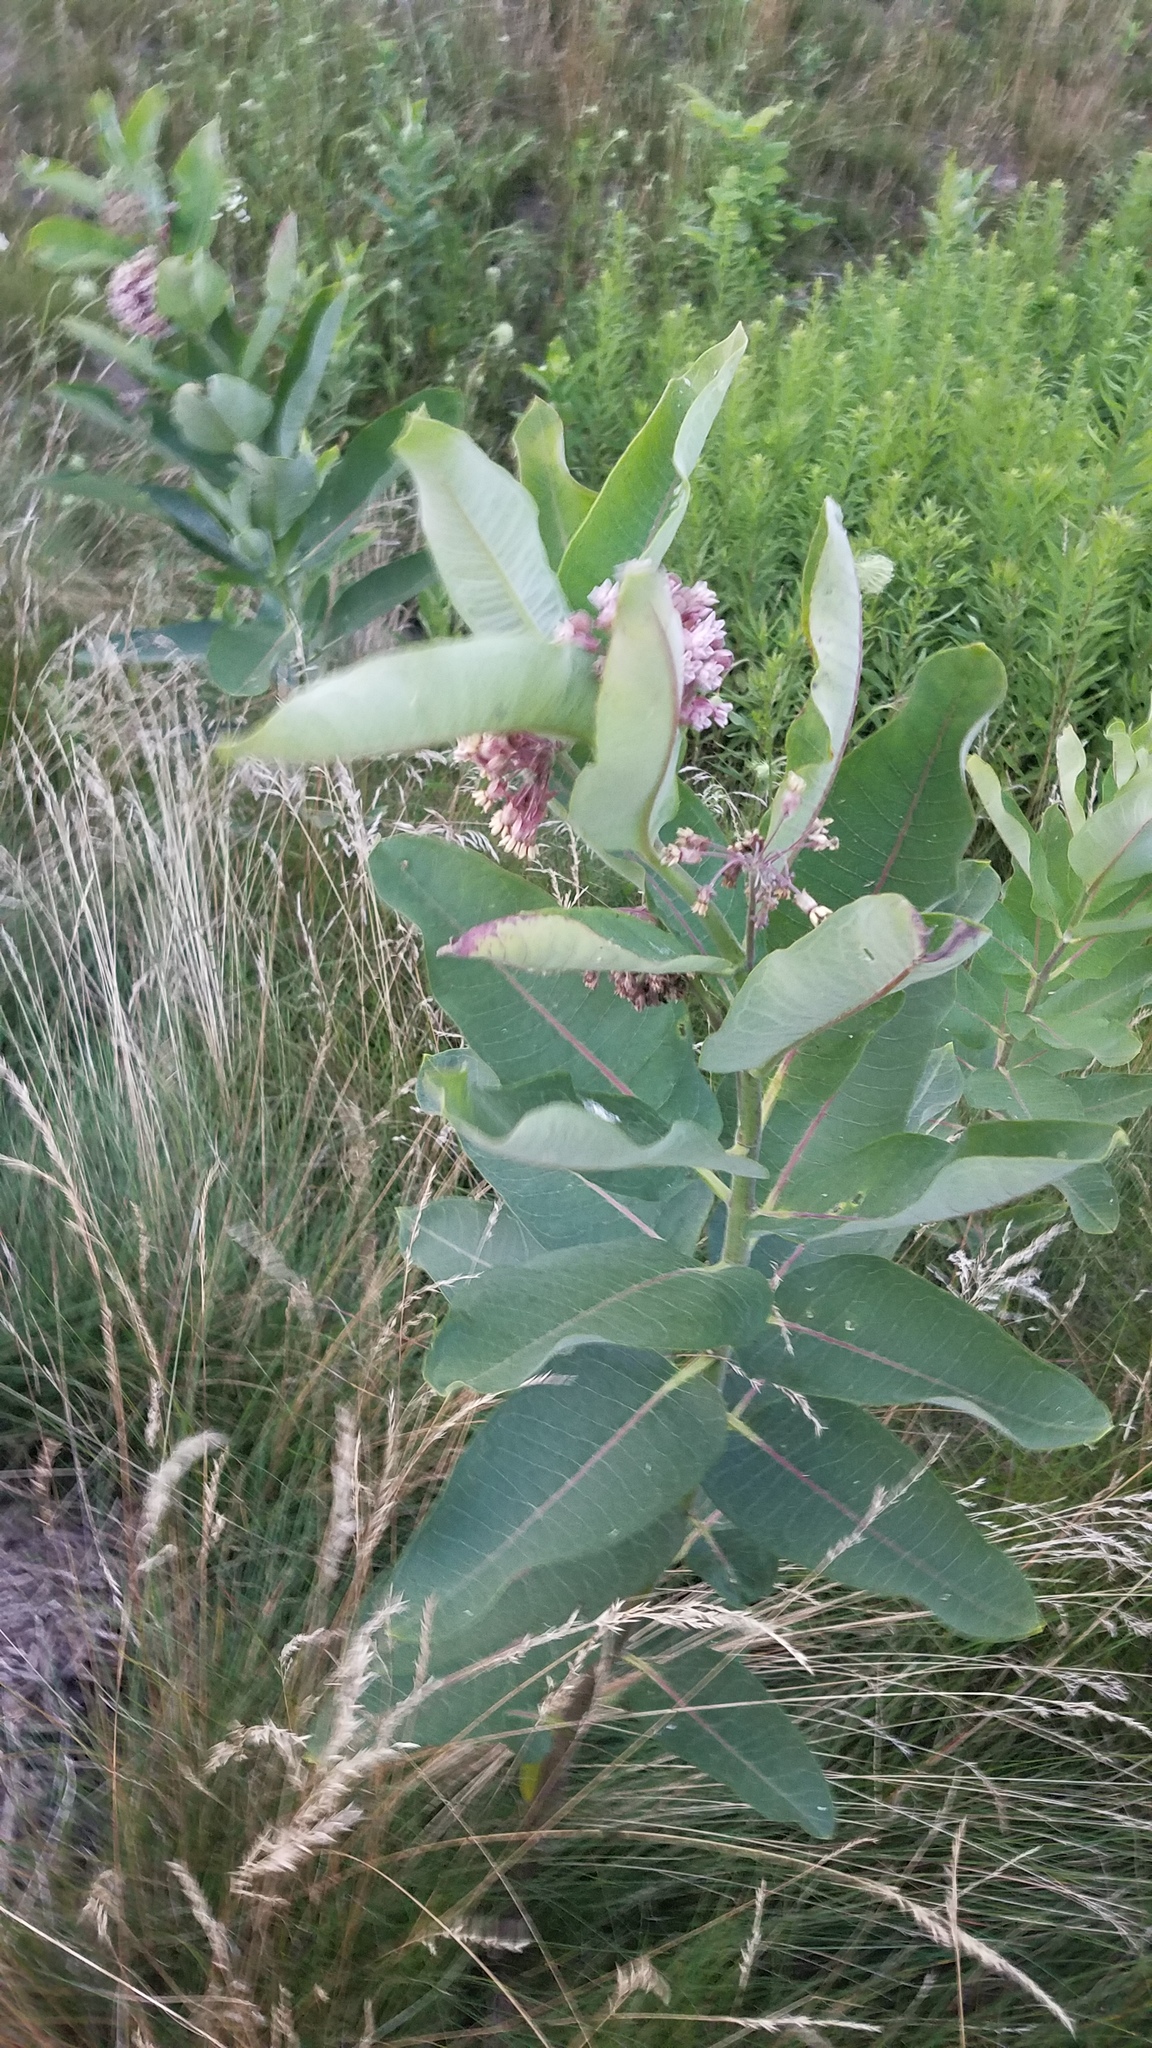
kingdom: Plantae
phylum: Tracheophyta
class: Magnoliopsida
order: Gentianales
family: Apocynaceae
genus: Asclepias
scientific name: Asclepias syriaca
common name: Common milkweed
